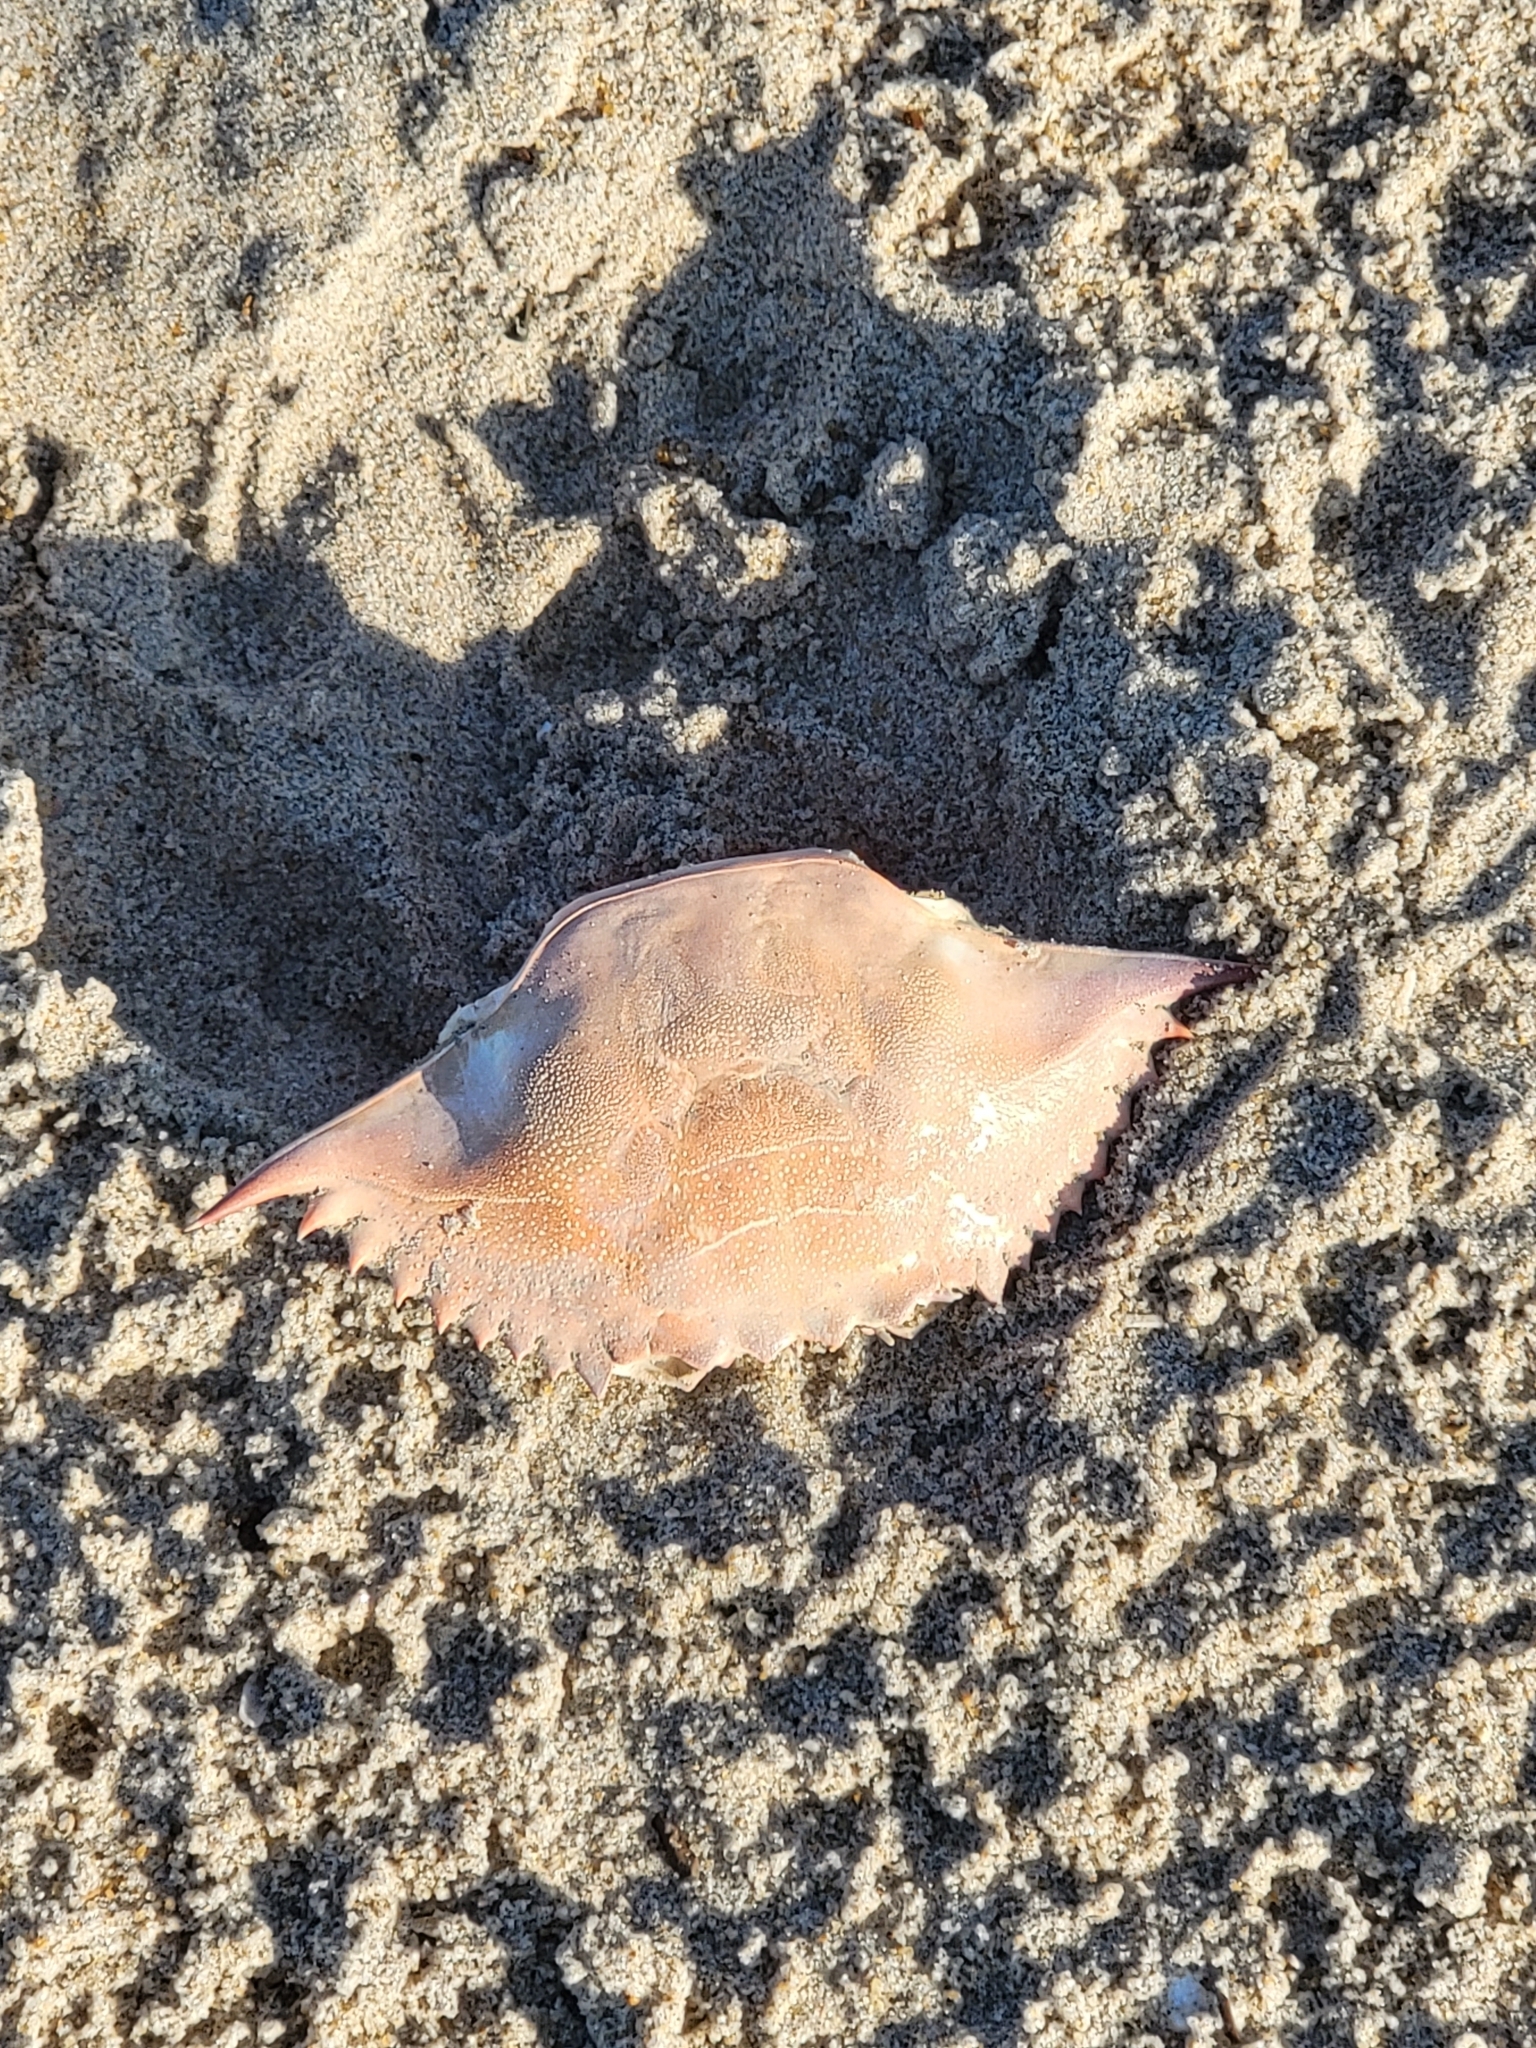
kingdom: Animalia
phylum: Arthropoda
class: Malacostraca
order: Decapoda
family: Portunidae
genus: Callinectes
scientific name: Callinectes sapidus
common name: Blue crab
